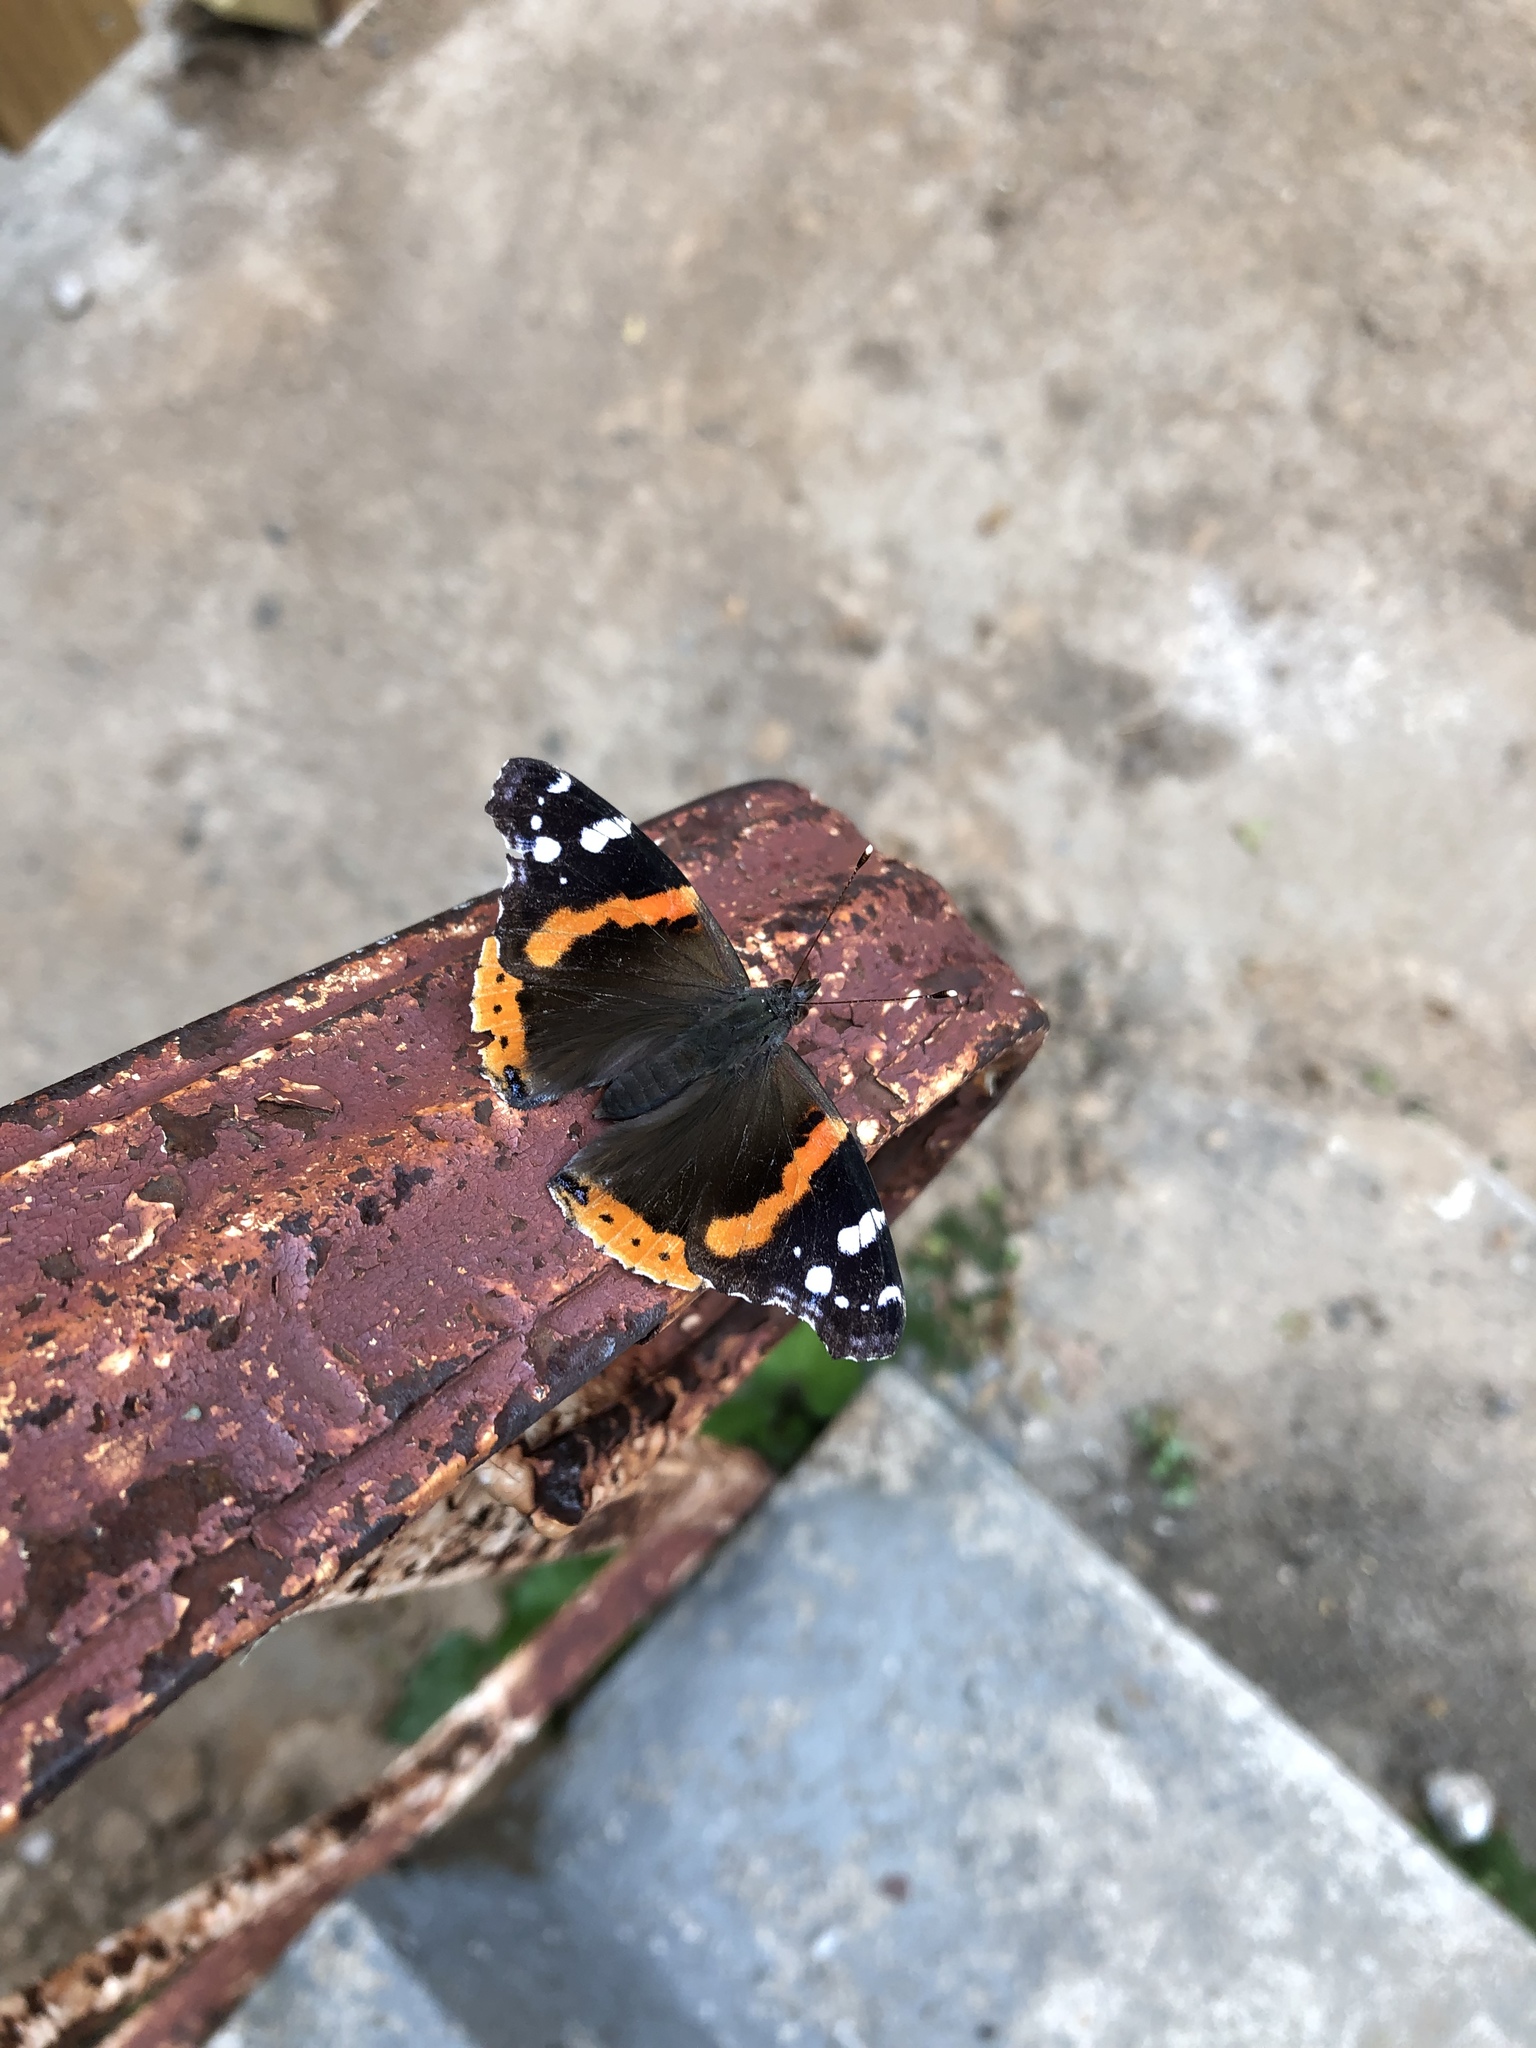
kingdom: Animalia
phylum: Arthropoda
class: Insecta
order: Lepidoptera
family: Nymphalidae
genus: Vanessa
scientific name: Vanessa atalanta
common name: Red admiral
